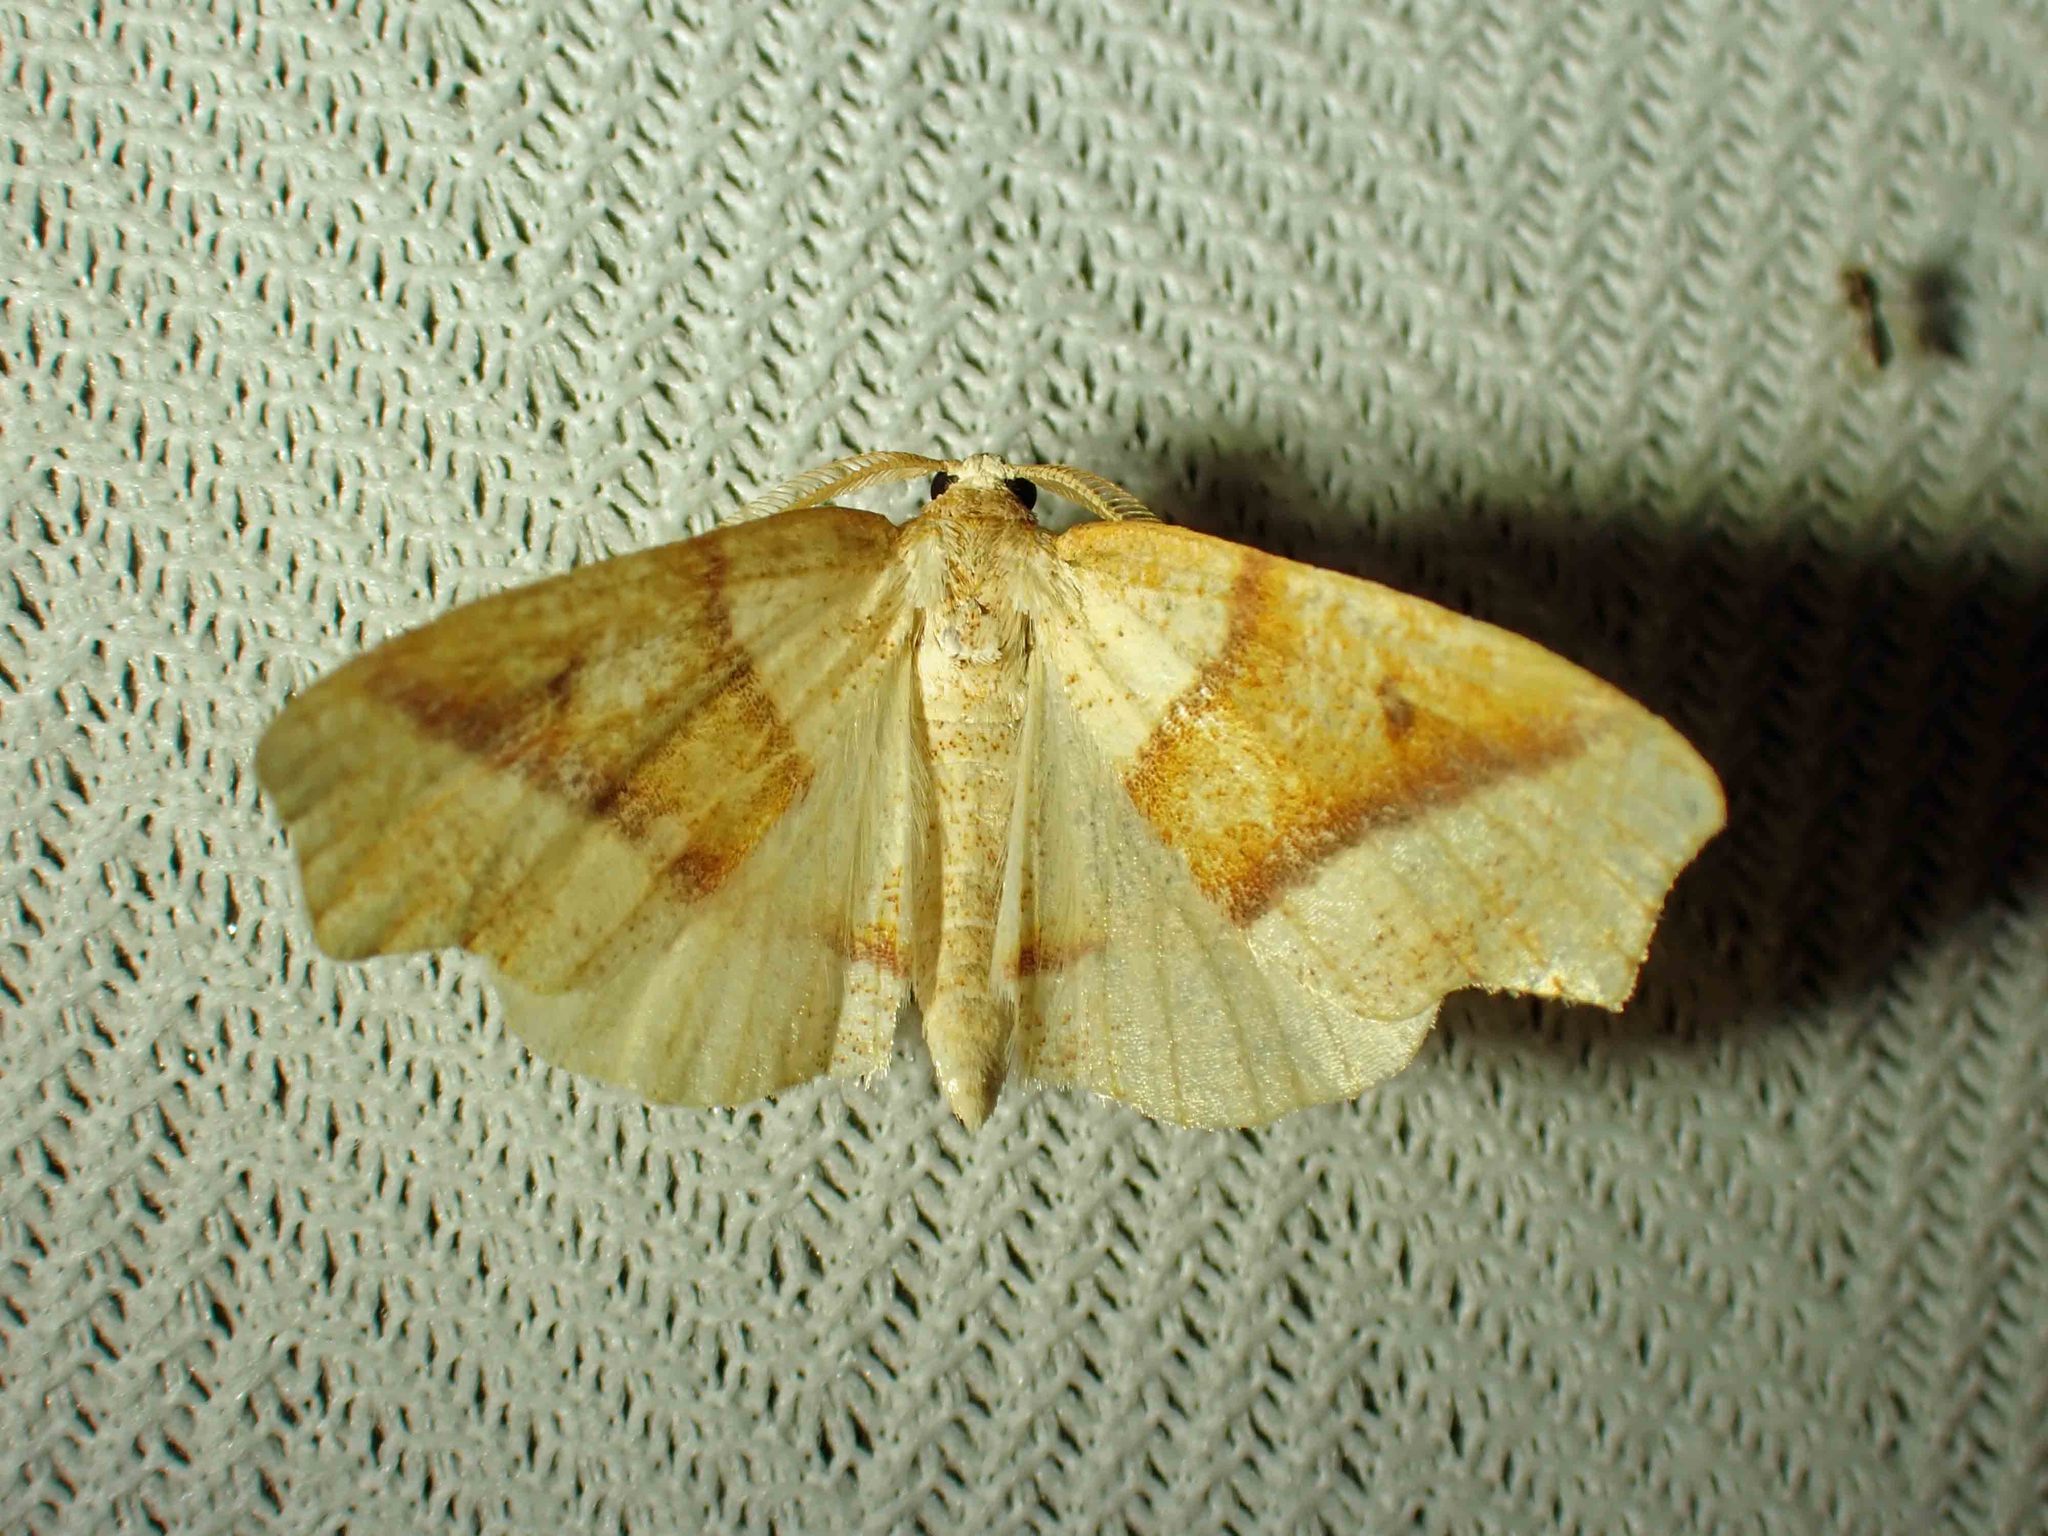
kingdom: Animalia
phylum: Arthropoda
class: Insecta
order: Lepidoptera
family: Geometridae
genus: Plagodis
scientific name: Plagodis alcoolaria
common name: Hollow-spotted plagodis
